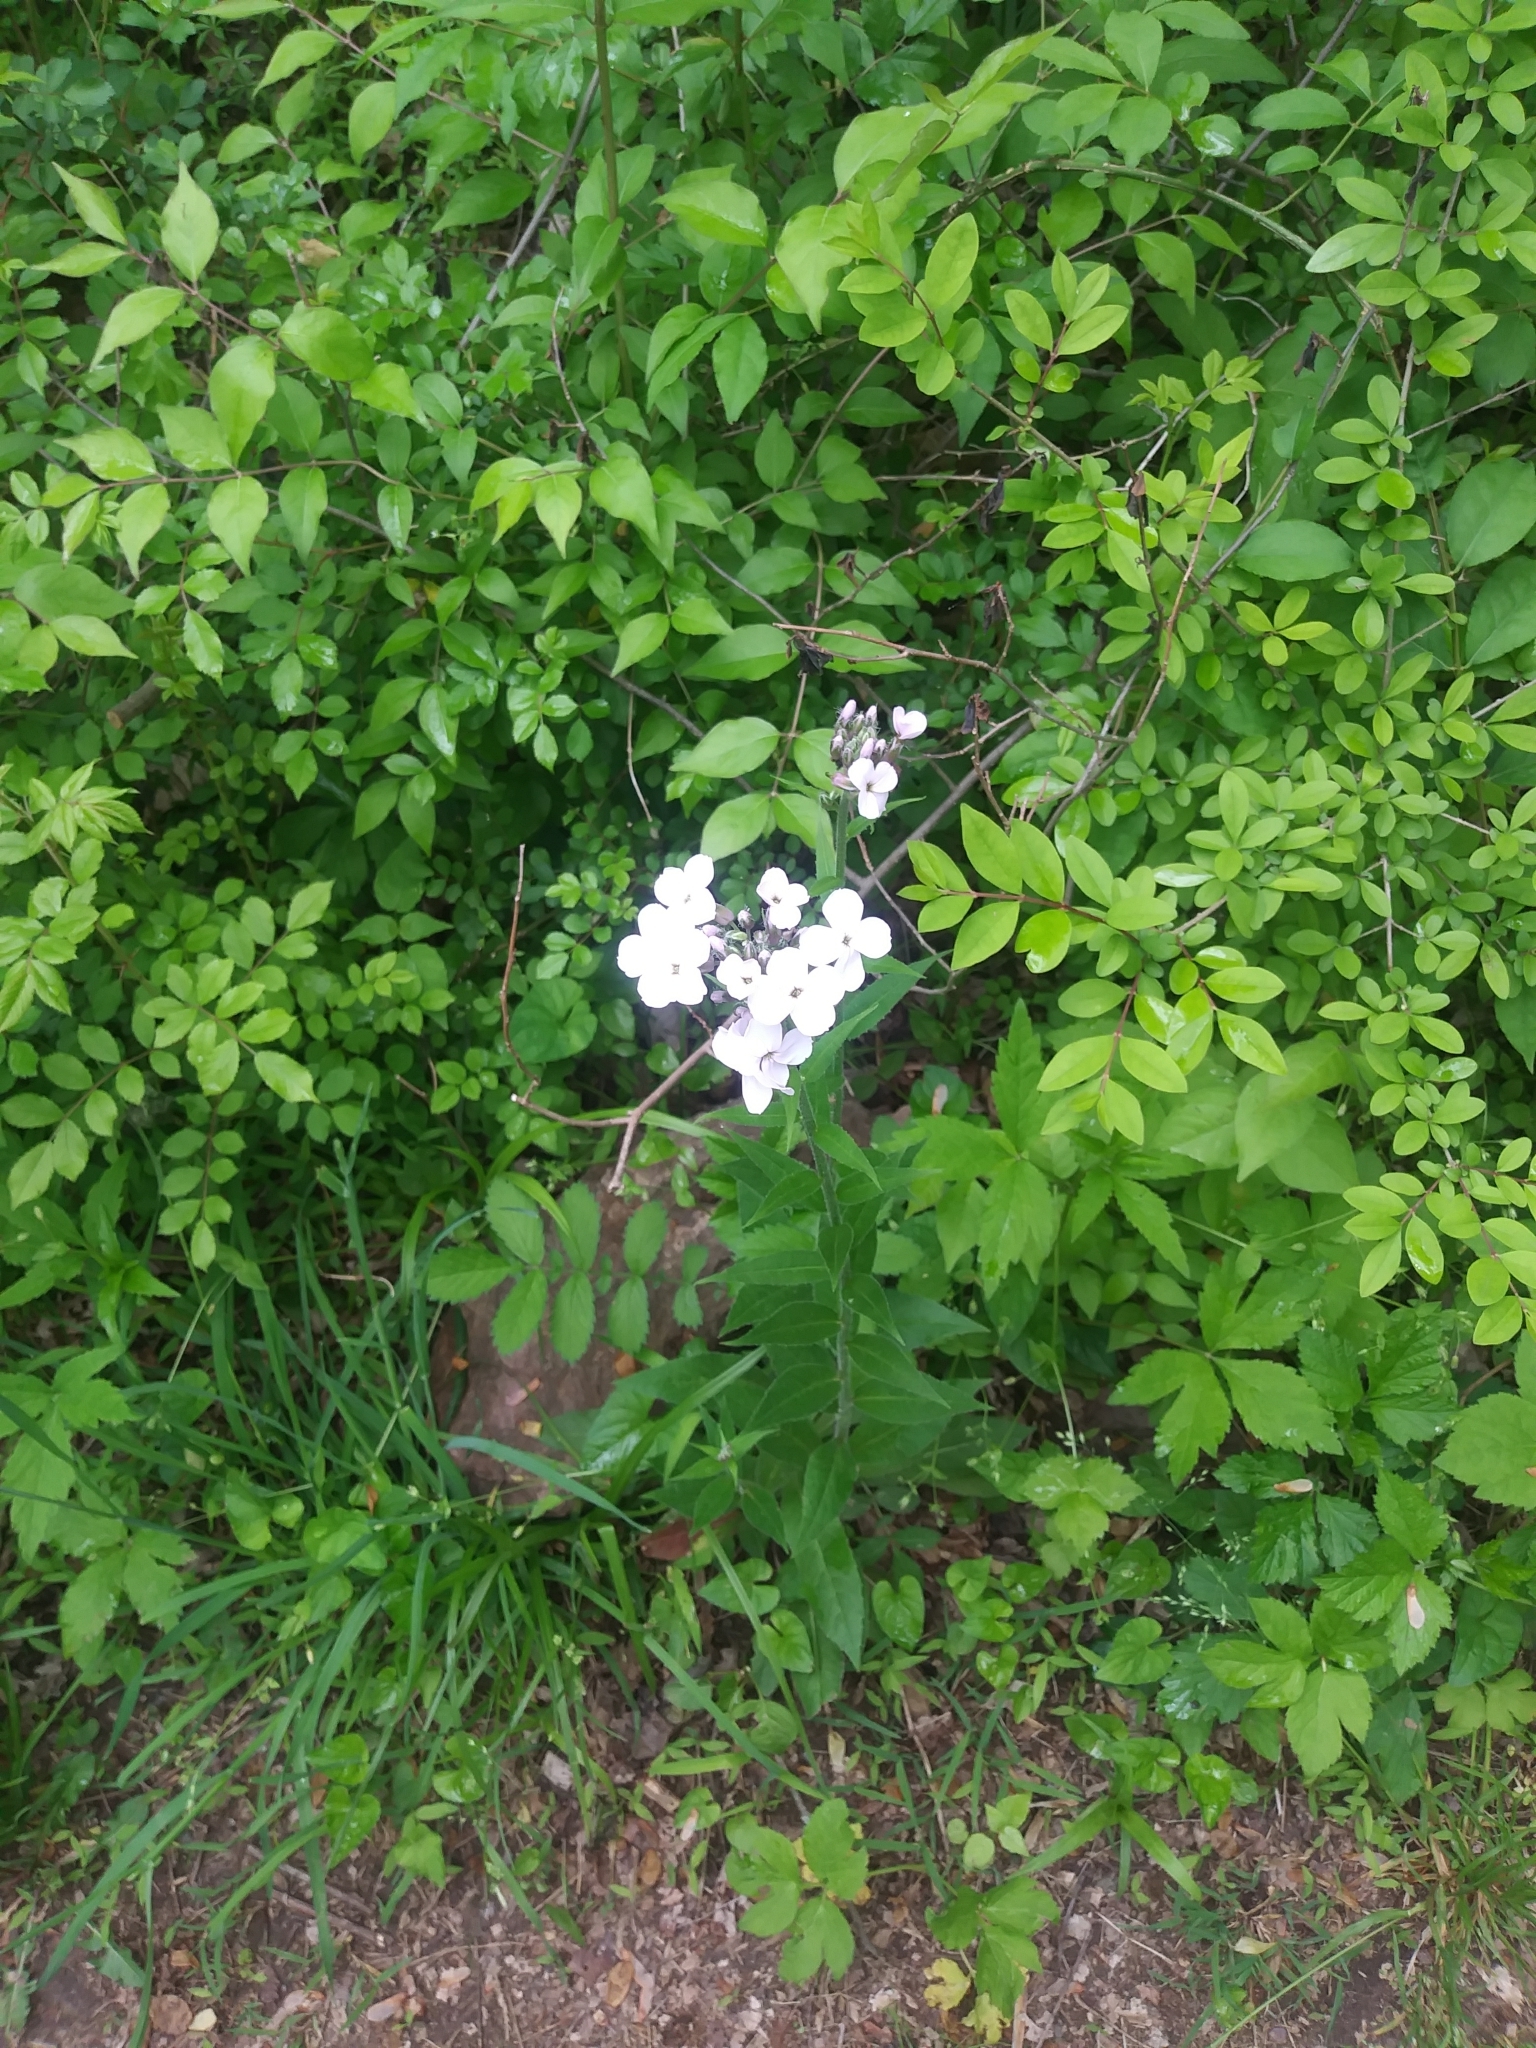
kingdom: Plantae
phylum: Tracheophyta
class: Magnoliopsida
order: Brassicales
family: Brassicaceae
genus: Hesperis
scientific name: Hesperis matronalis
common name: Dame's-violet
